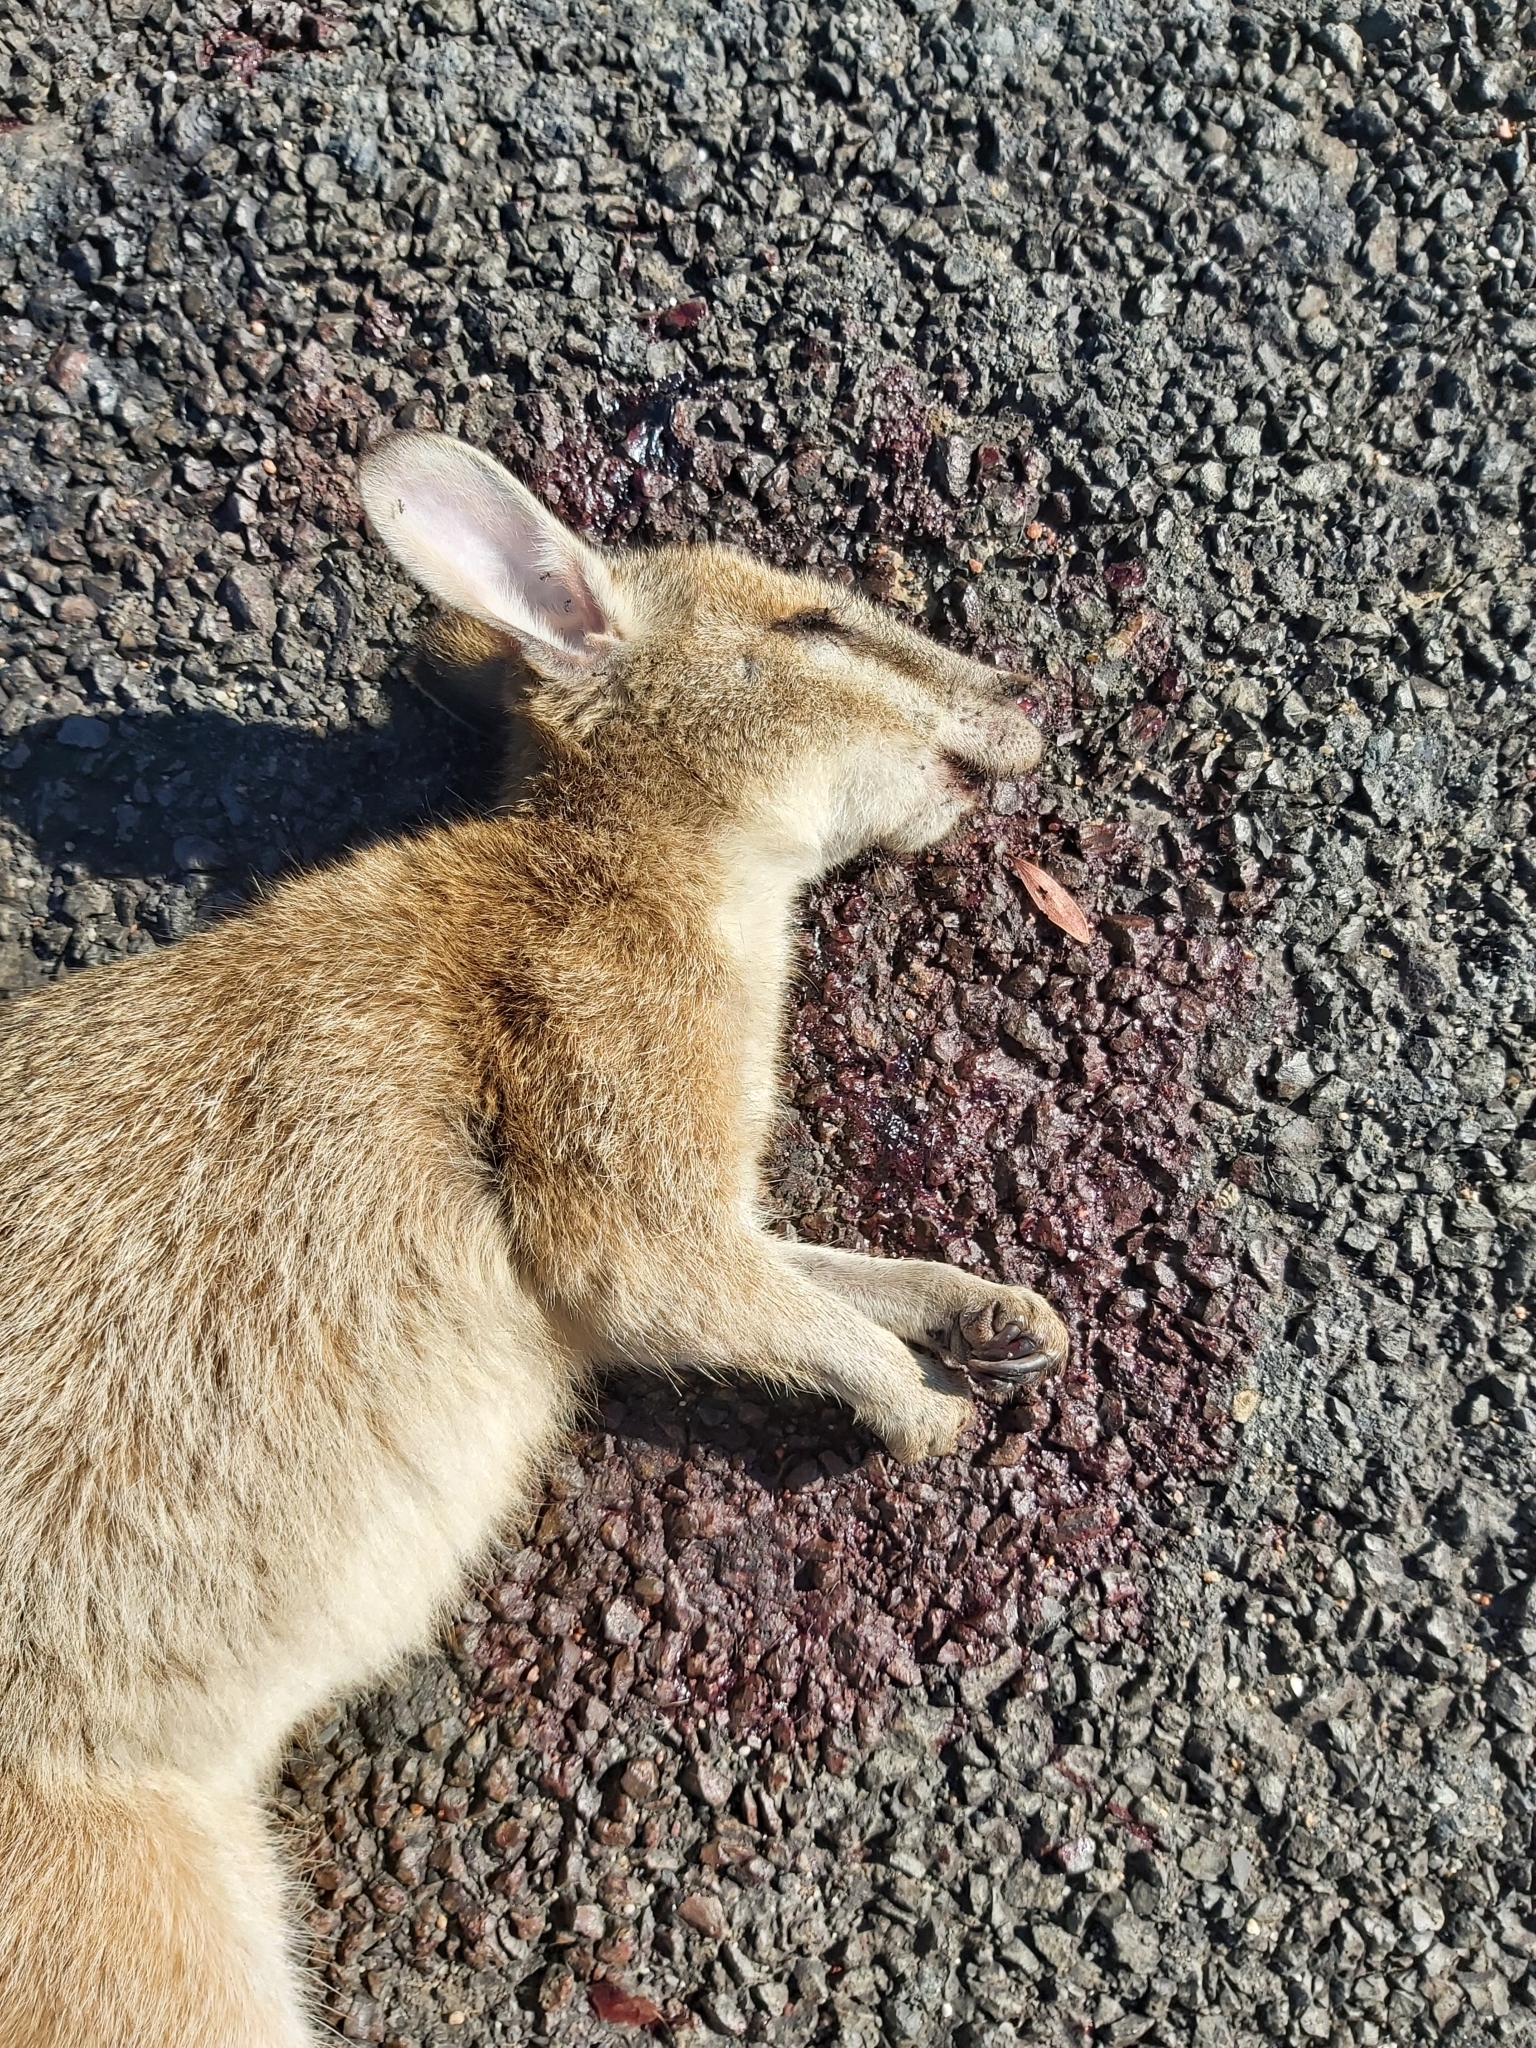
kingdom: Animalia
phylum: Chordata
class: Mammalia
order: Diprotodontia
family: Macropodidae
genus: Macropus
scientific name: Macropus agilis
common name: Agile wallaby
